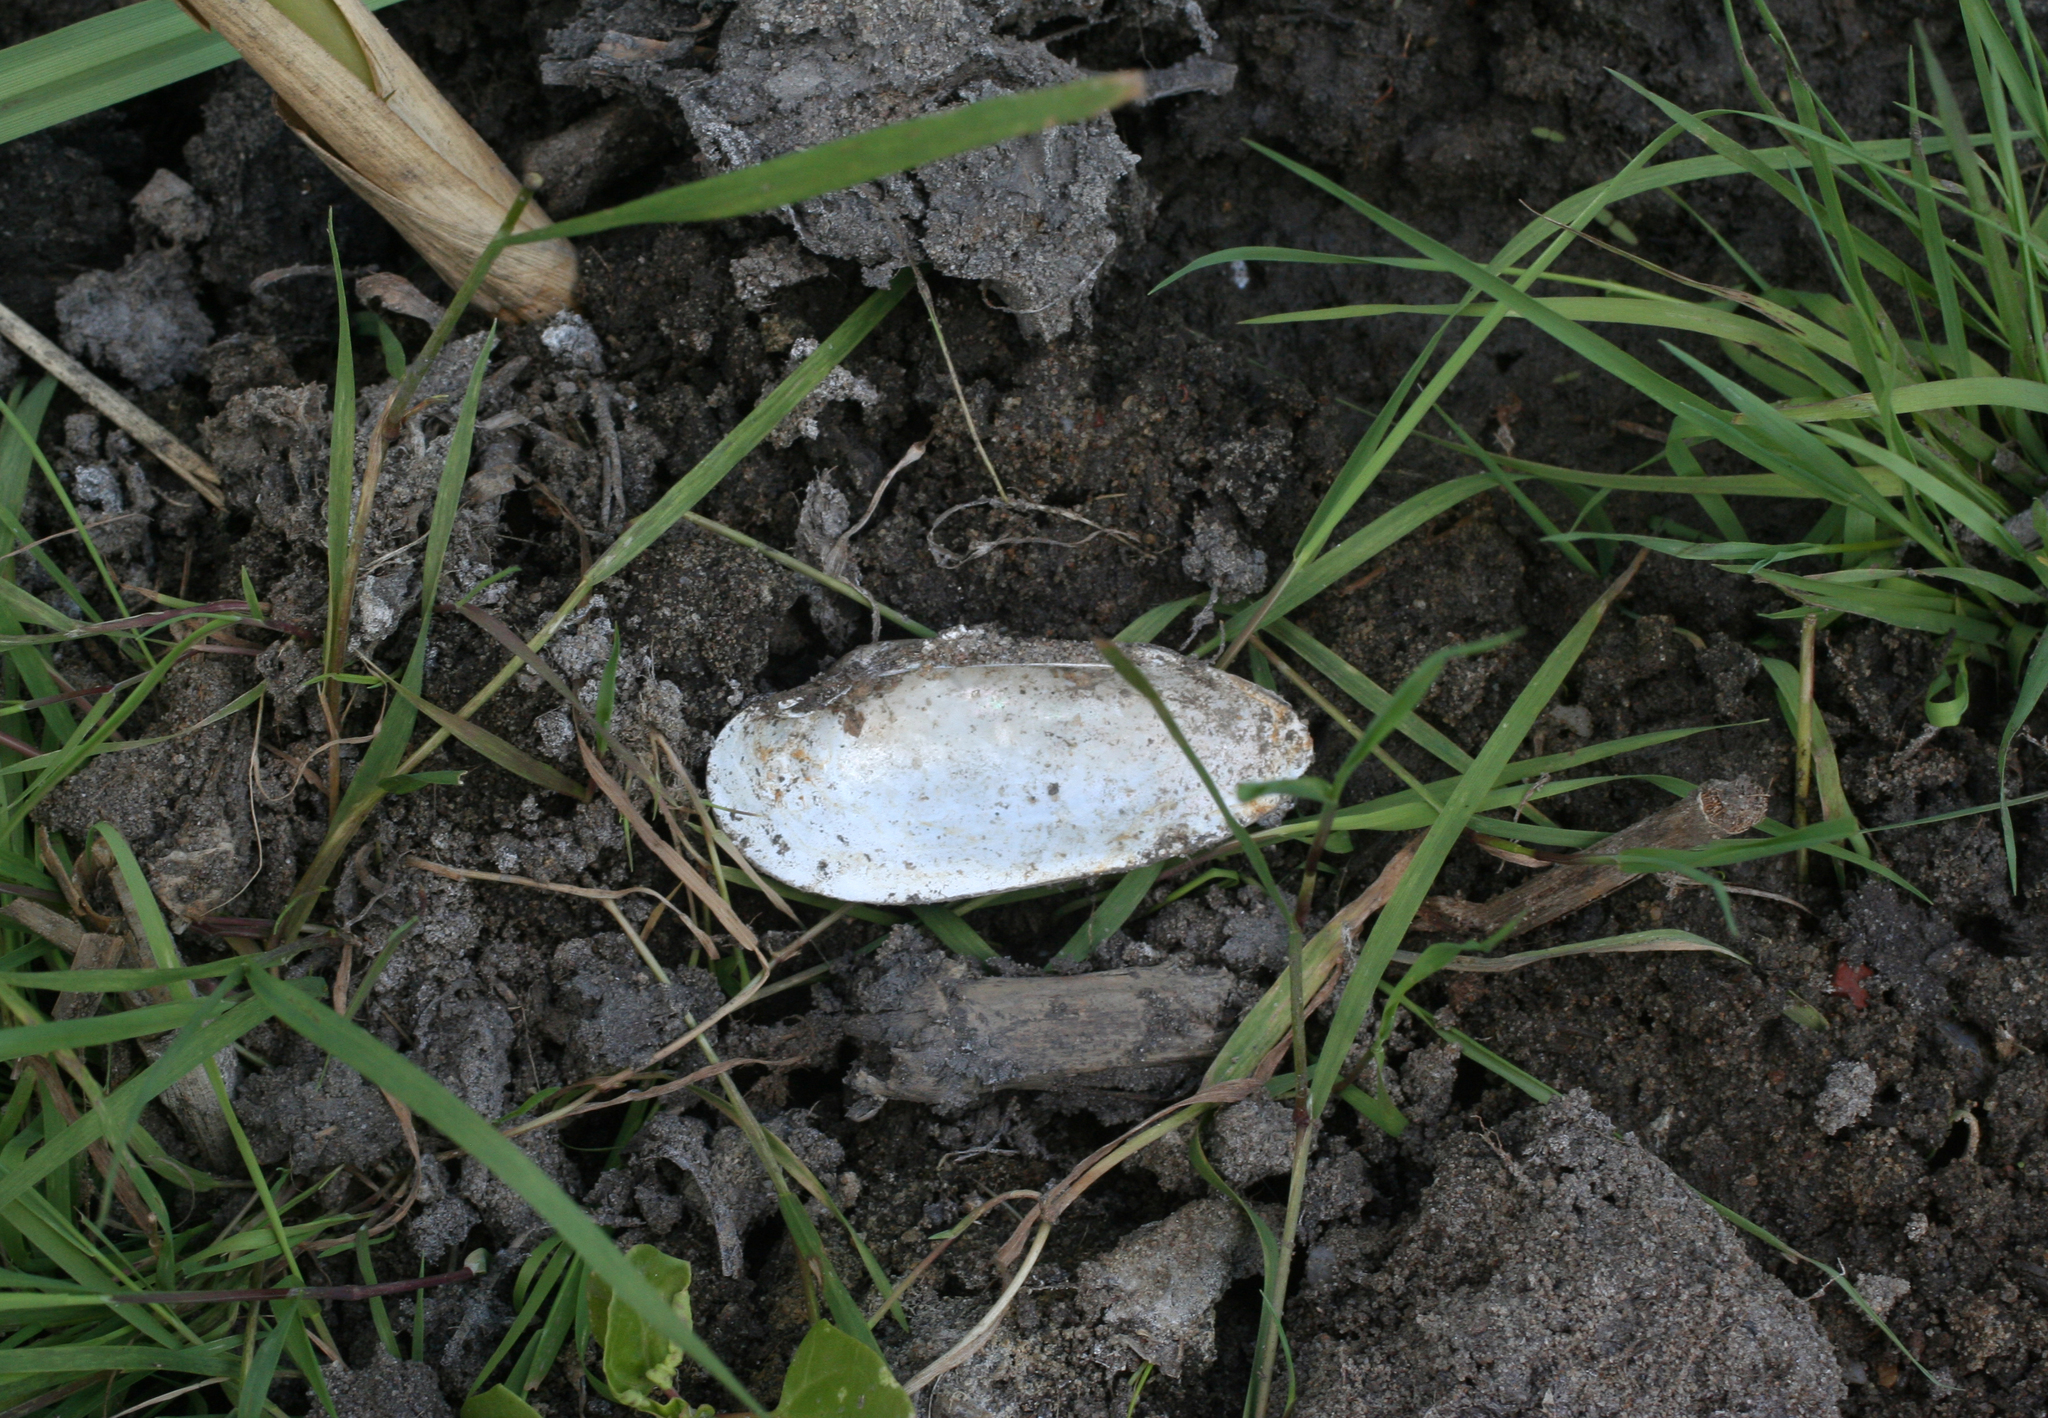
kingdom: Animalia
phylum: Mollusca
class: Bivalvia
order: Unionida
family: Unionidae
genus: Unio
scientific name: Unio pictorum
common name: Painter's mussel
